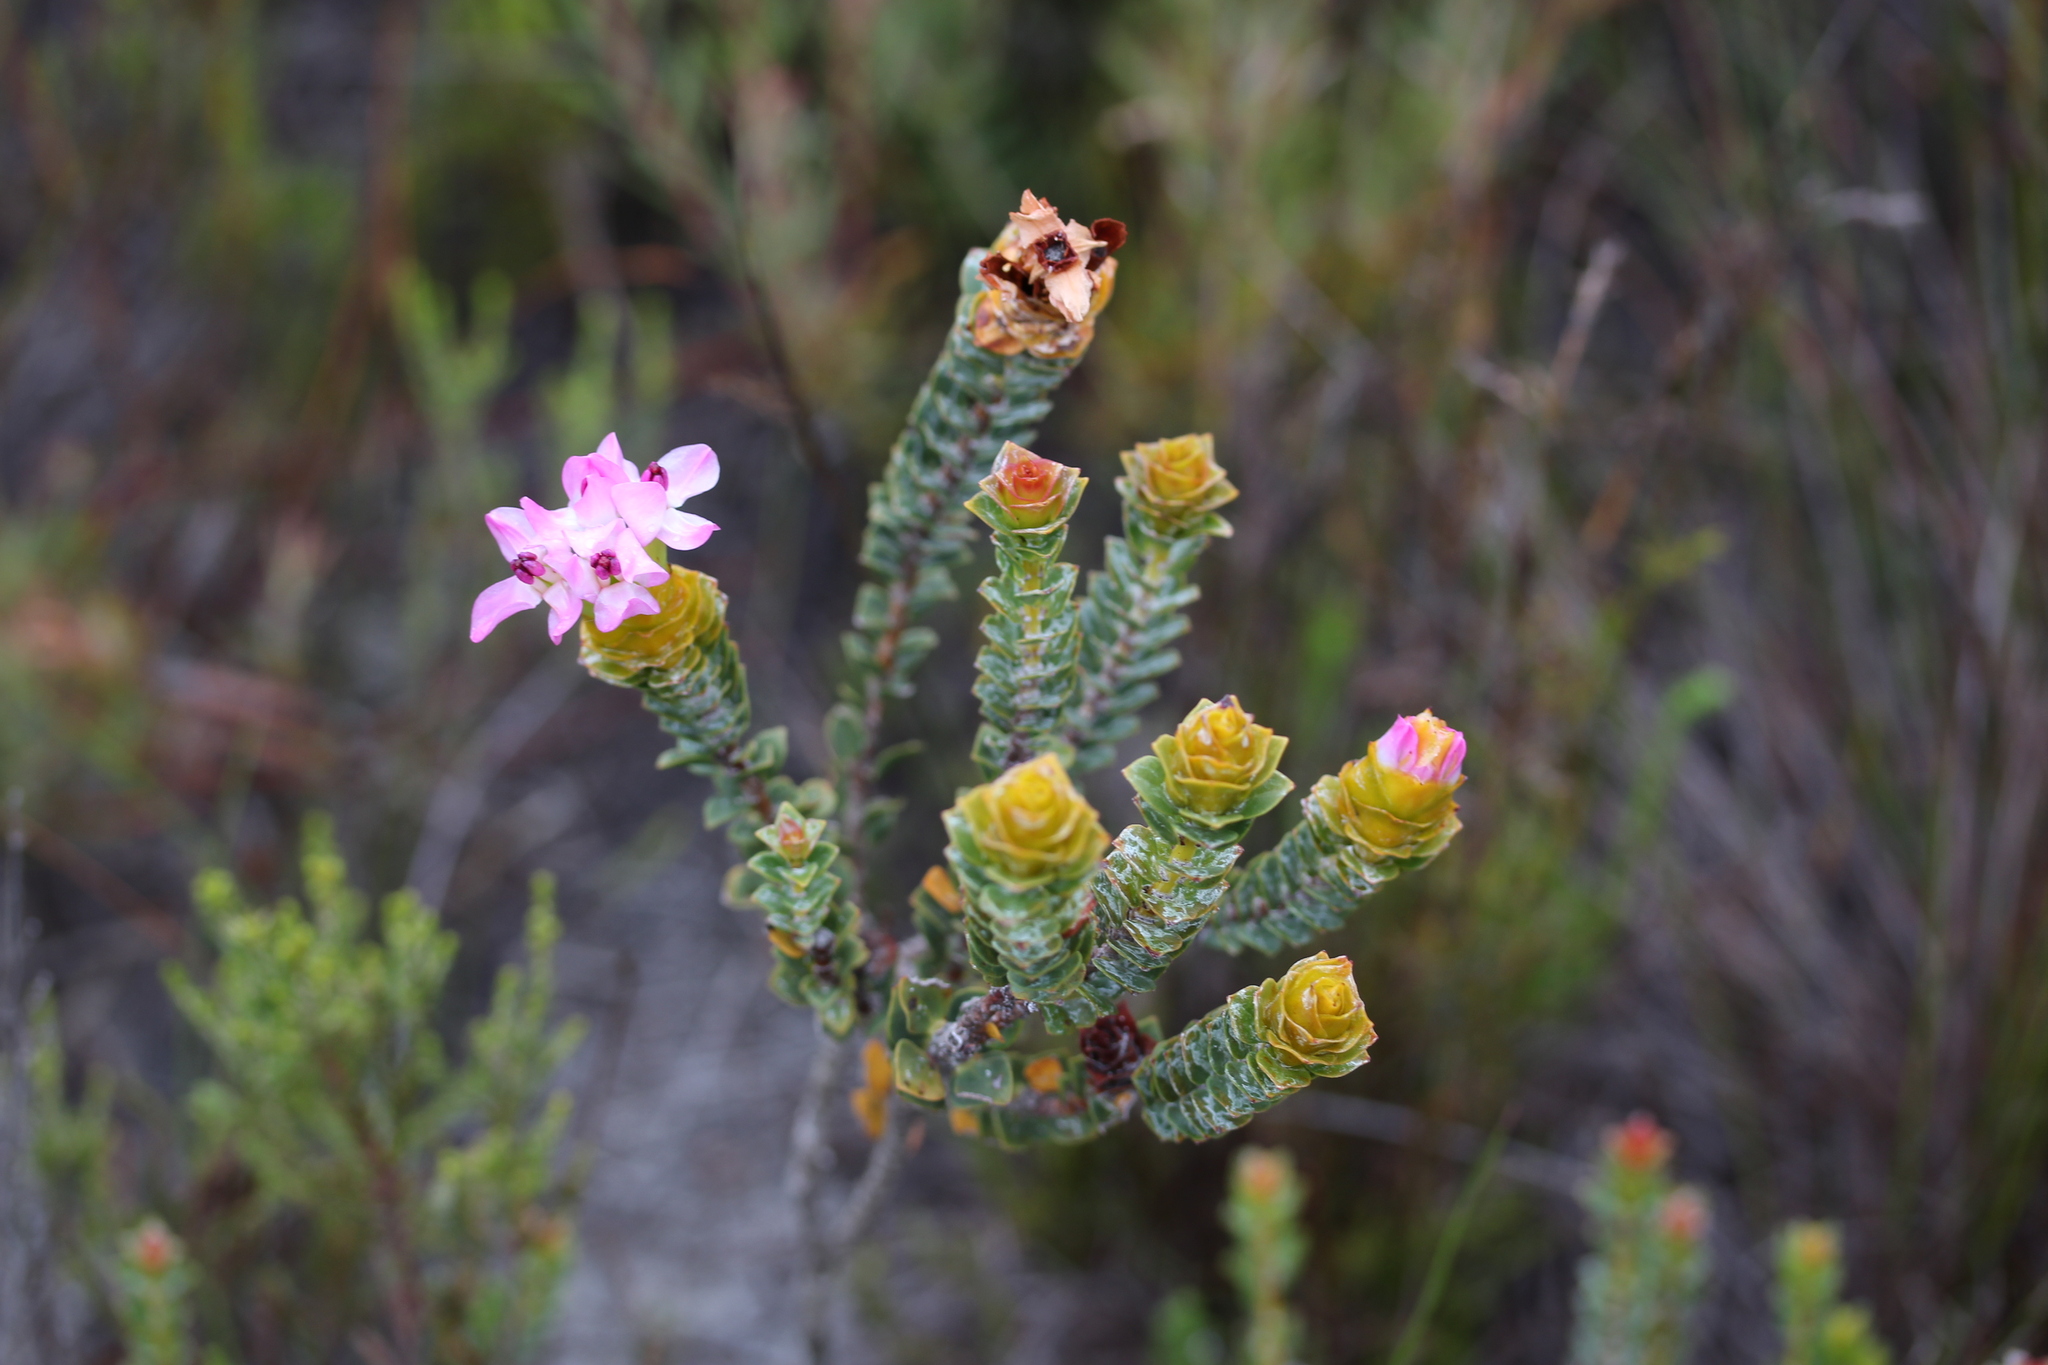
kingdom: Plantae
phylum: Tracheophyta
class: Magnoliopsida
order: Myrtales
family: Penaeaceae
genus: Saltera
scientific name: Saltera sarcocolla
